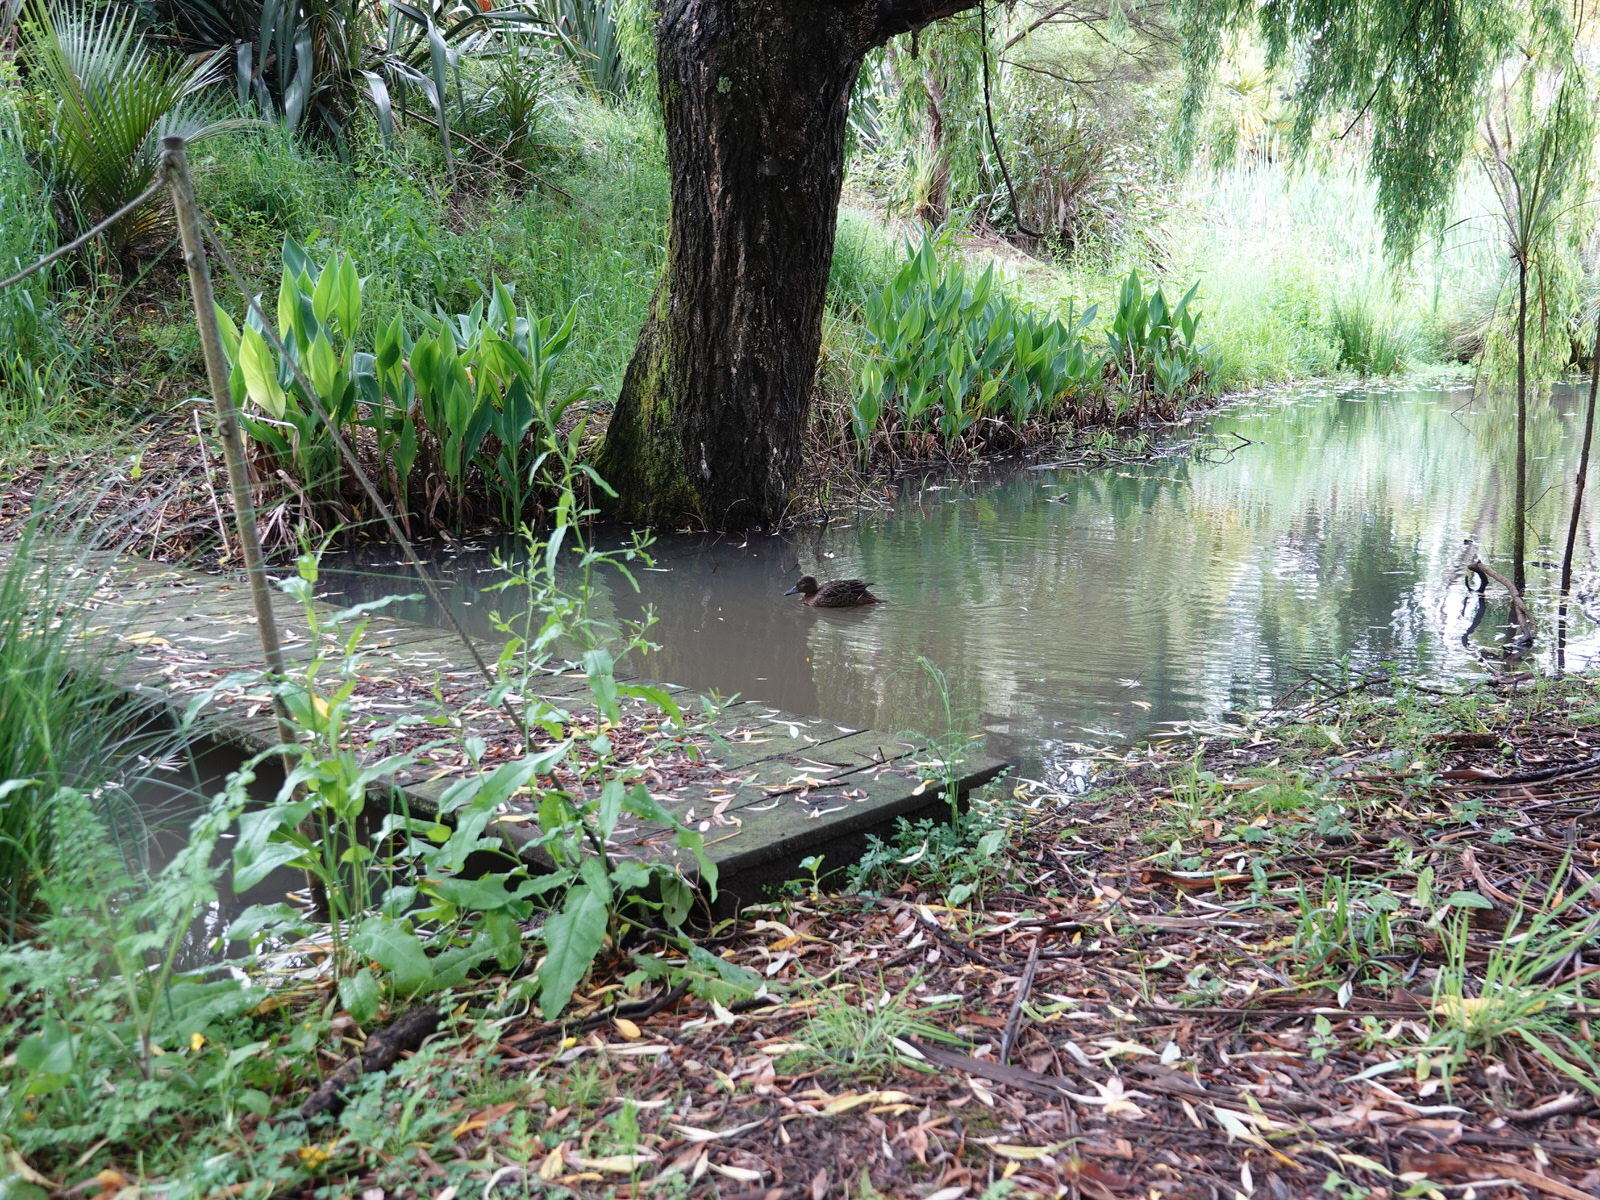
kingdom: Animalia
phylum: Chordata
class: Aves
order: Anseriformes
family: Anatidae
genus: Anas
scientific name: Anas chlorotis
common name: Brown teal
